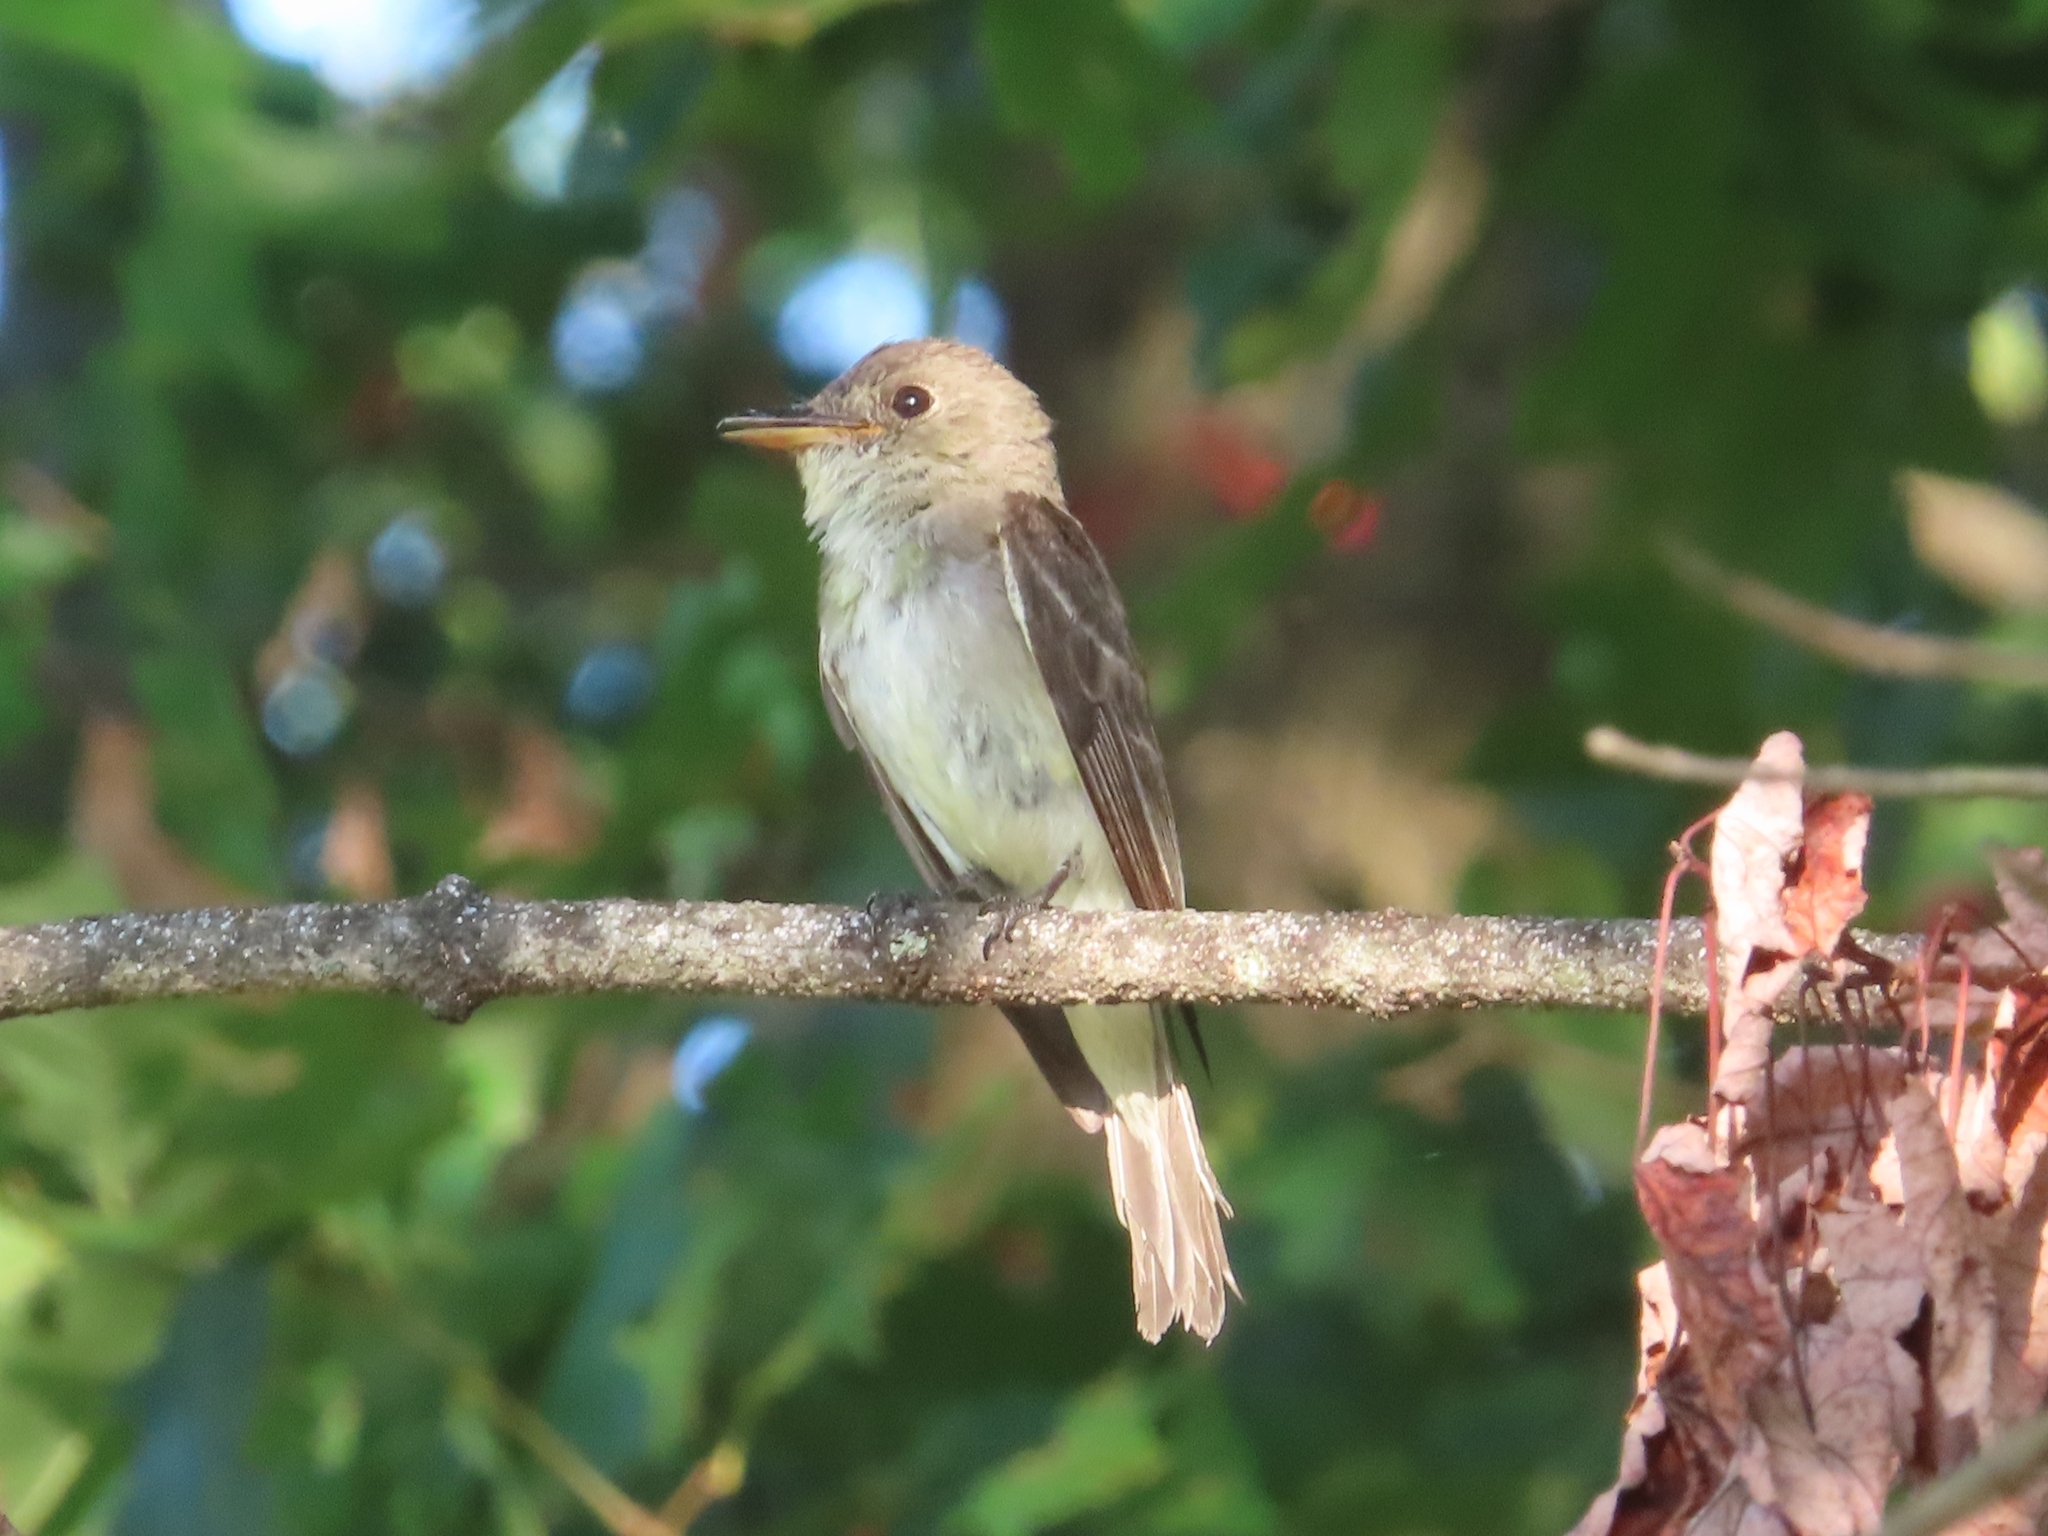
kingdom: Animalia
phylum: Chordata
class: Aves
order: Passeriformes
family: Tyrannidae
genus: Contopus
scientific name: Contopus virens
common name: Eastern wood-pewee
